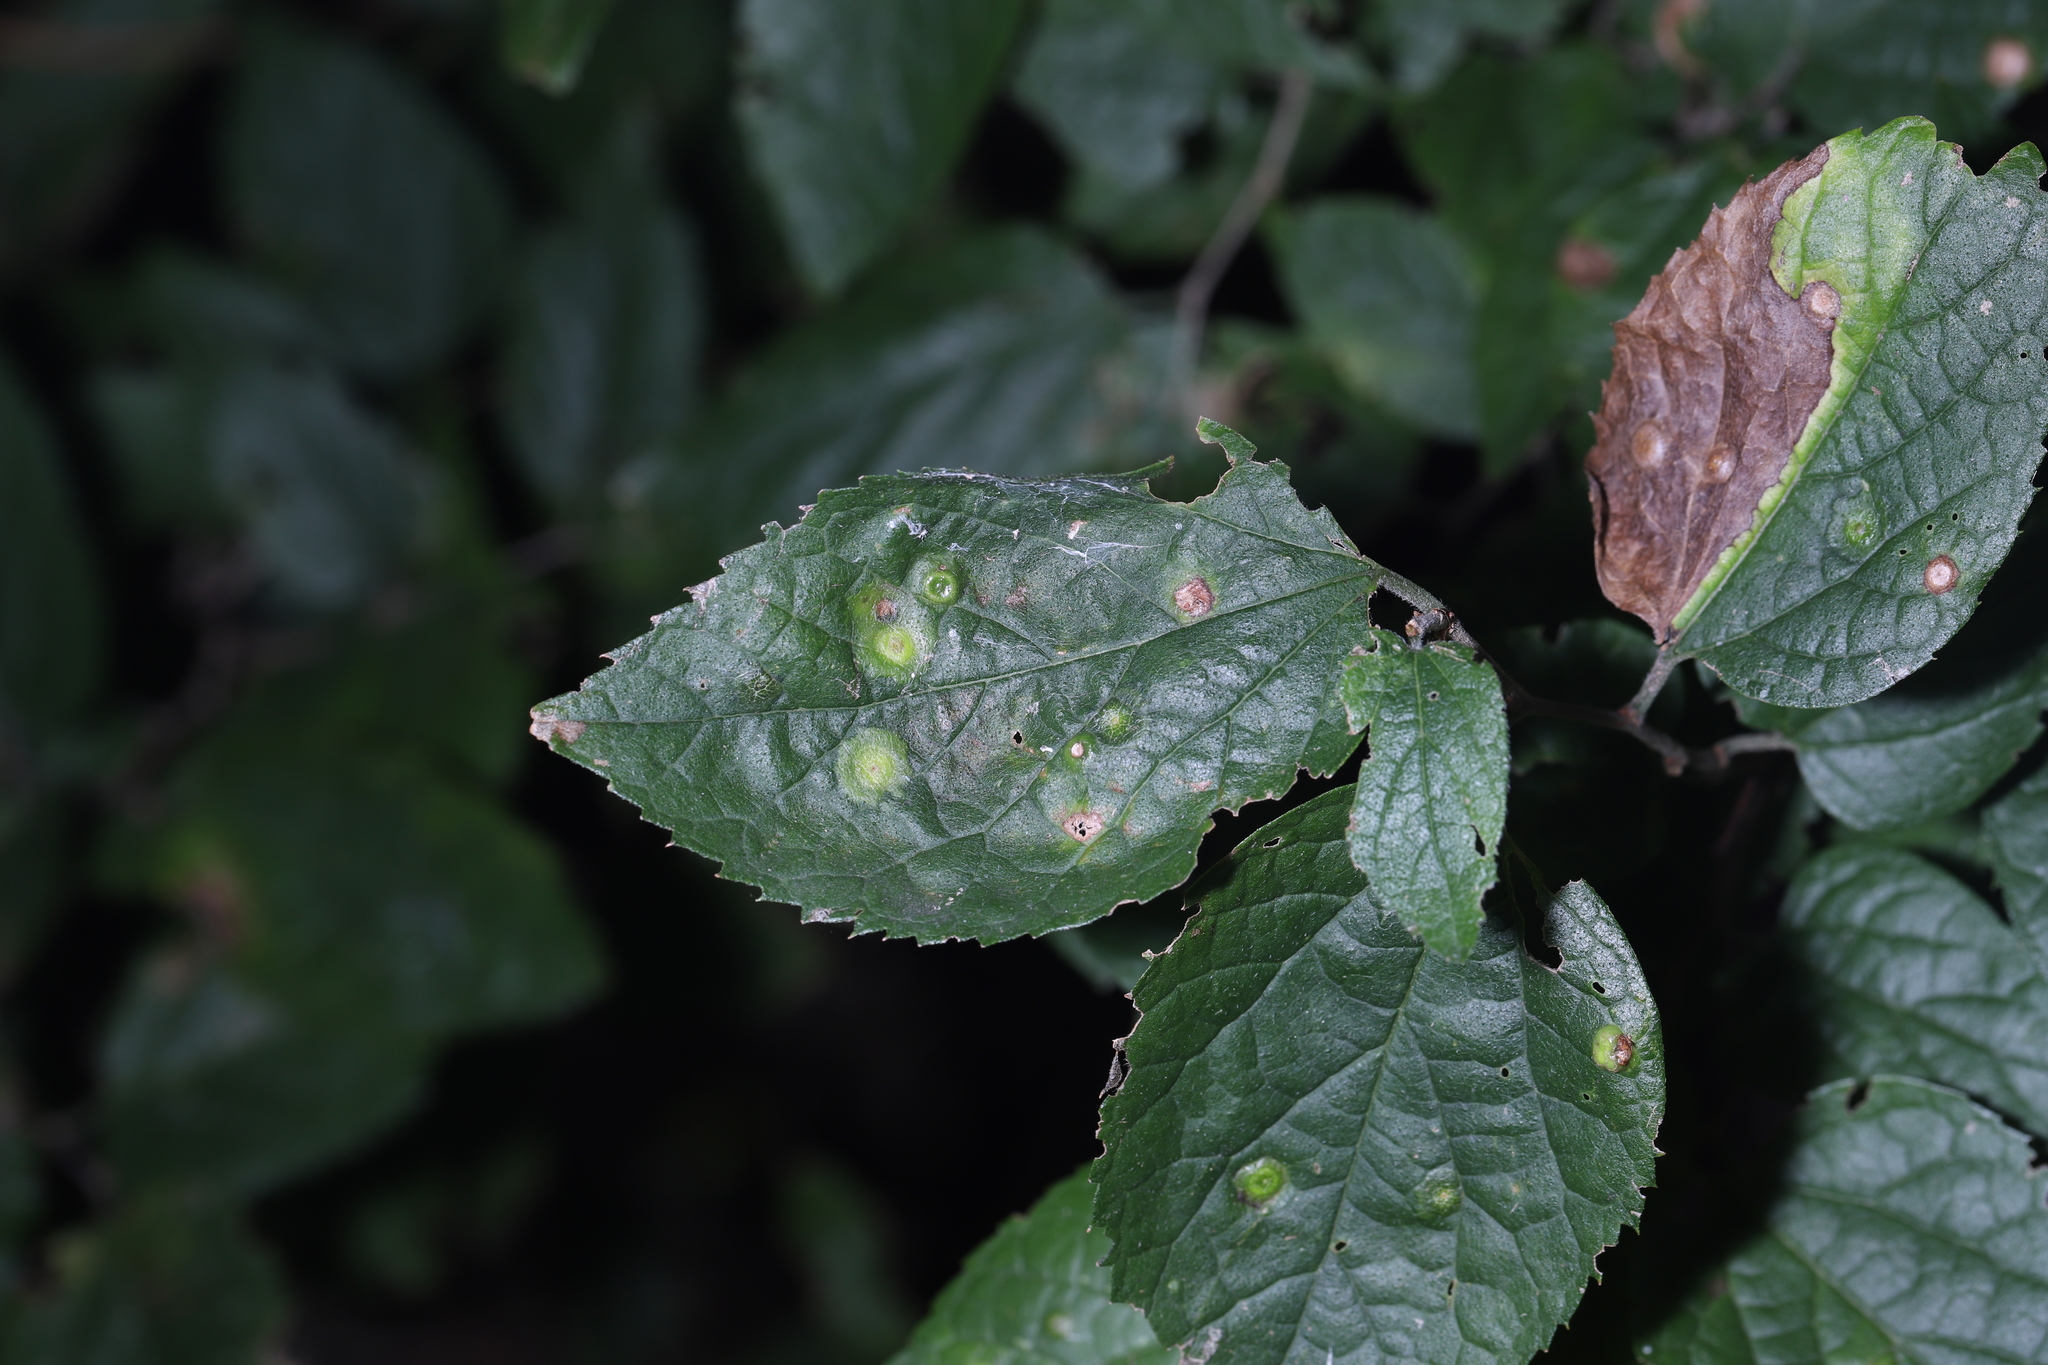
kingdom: Animalia
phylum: Arthropoda
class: Insecta
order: Hemiptera
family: Aphalaridae
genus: Pachypsylla
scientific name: Pachypsylla celtidisasterisca
